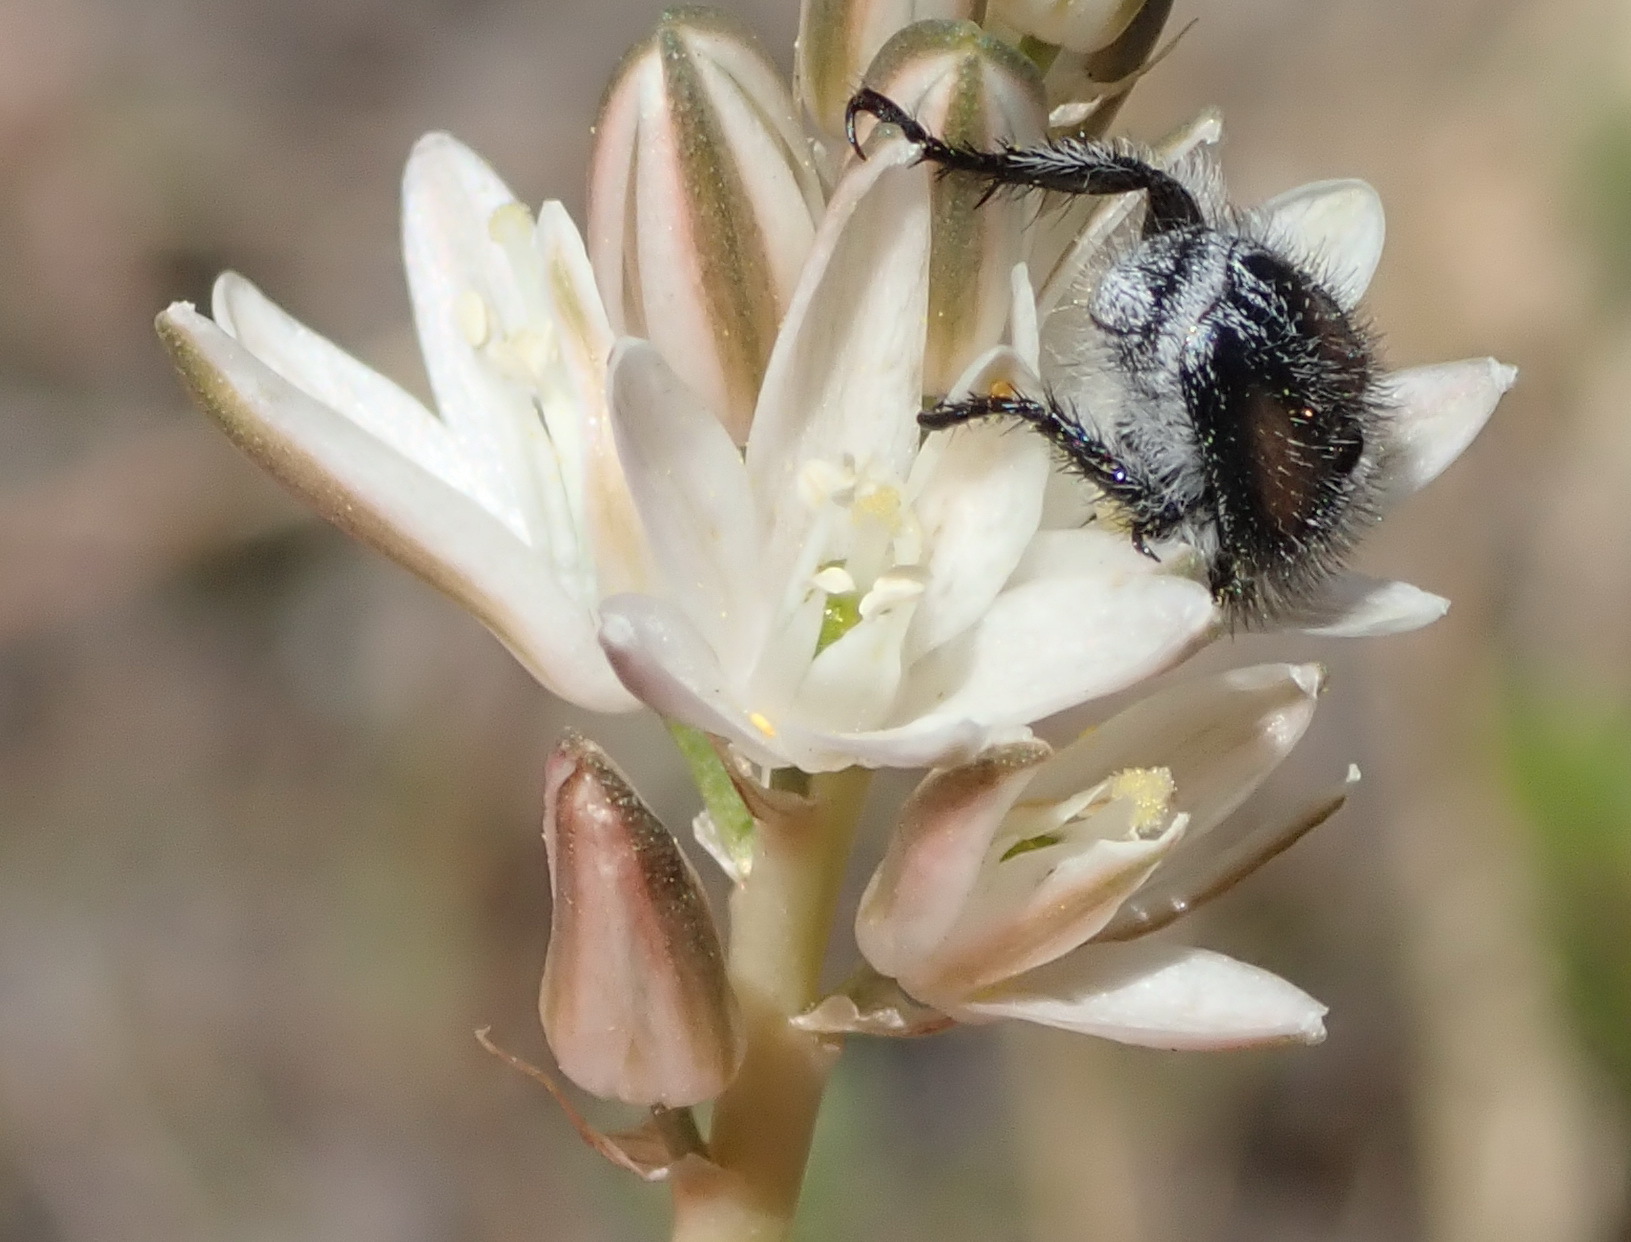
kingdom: Plantae
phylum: Tracheophyta
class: Liliopsida
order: Asparagales
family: Asparagaceae
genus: Ornithogalum
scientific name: Ornithogalum graminifolium
